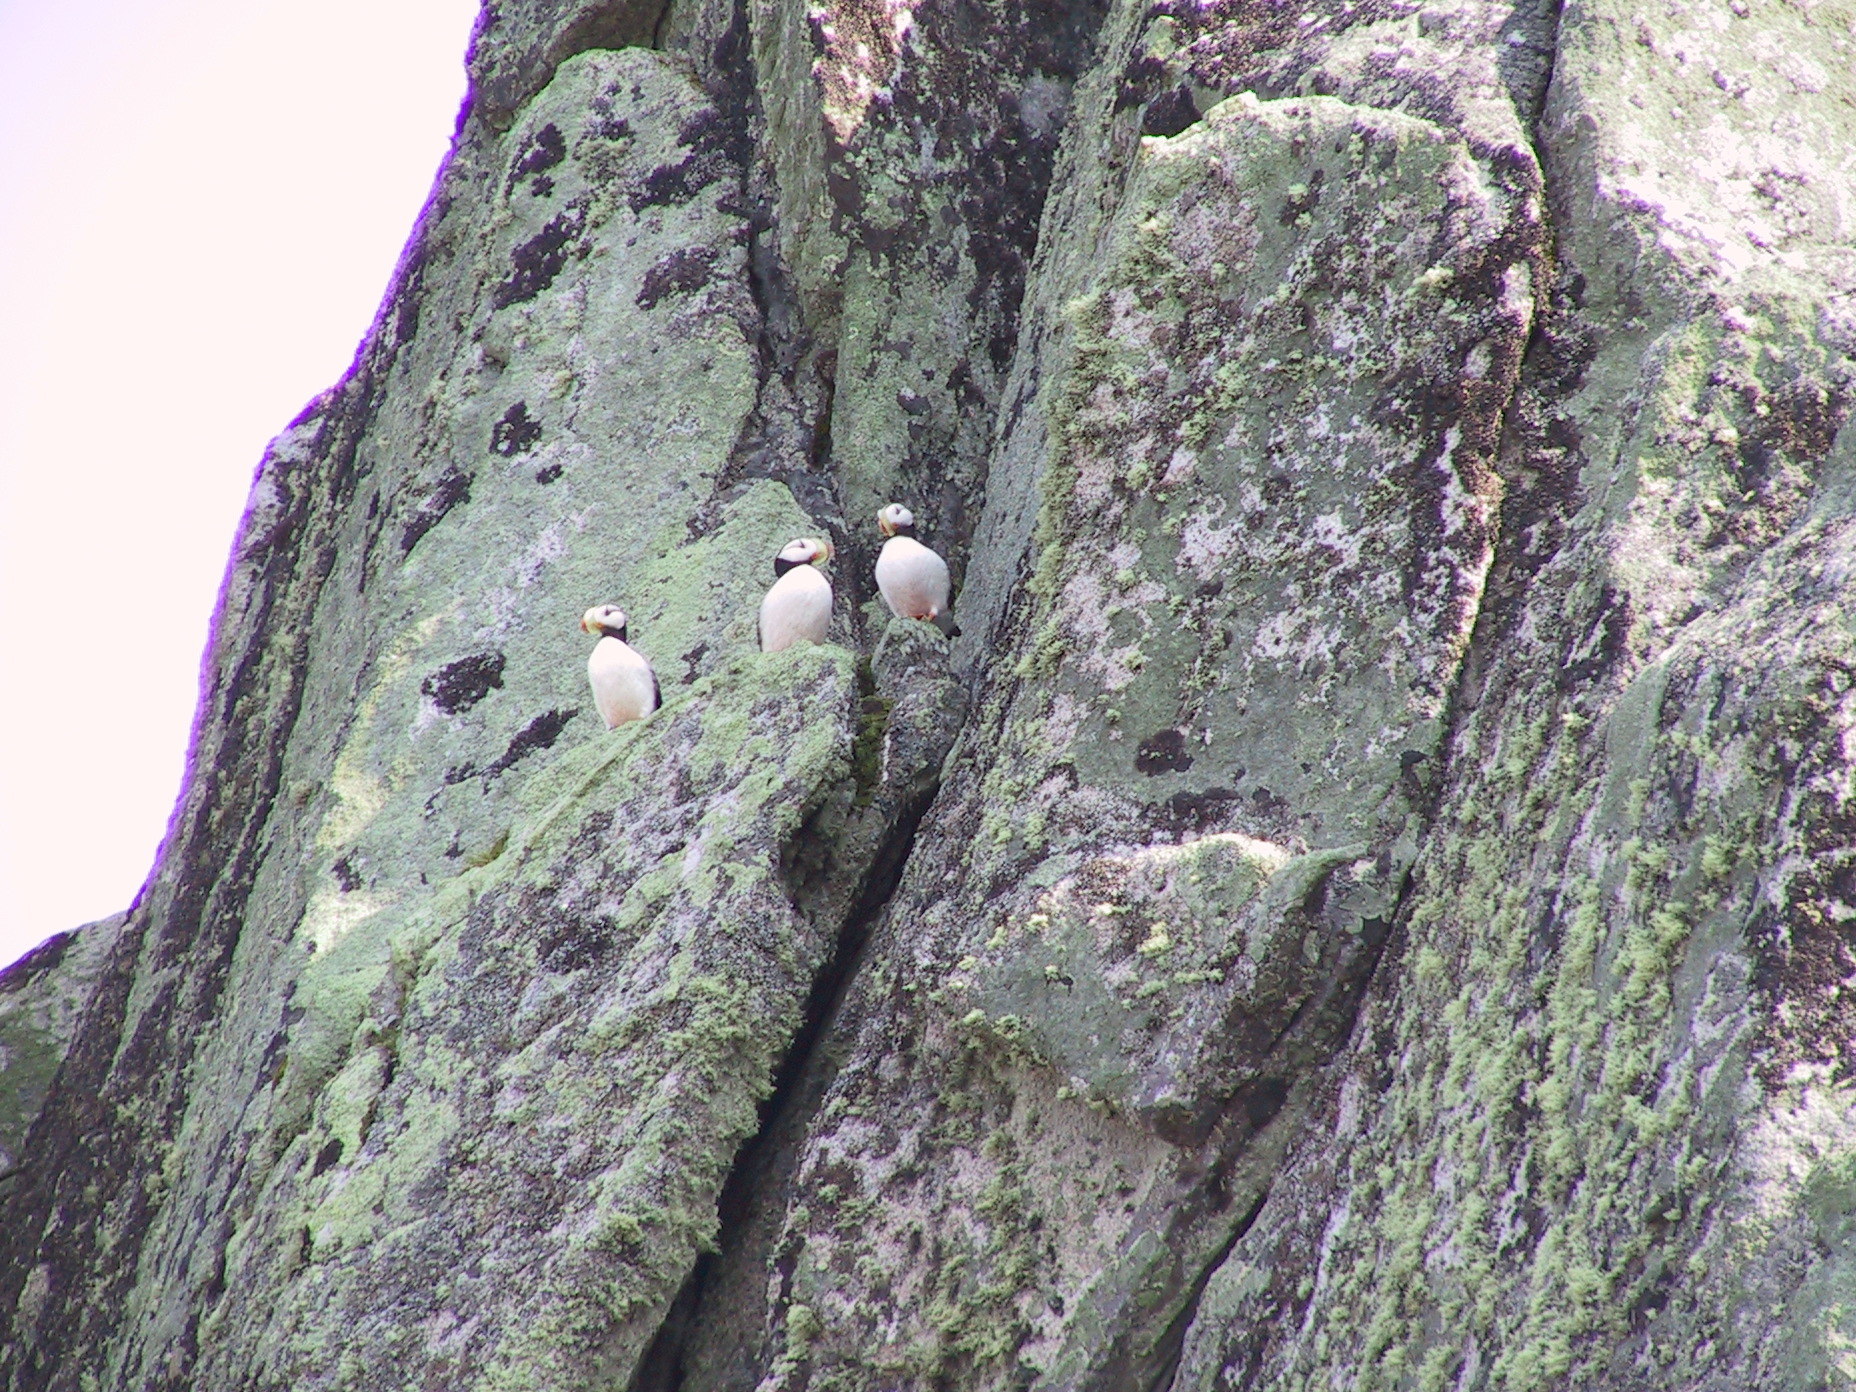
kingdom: Animalia
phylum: Chordata
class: Aves
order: Charadriiformes
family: Alcidae
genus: Fratercula
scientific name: Fratercula corniculata
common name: Horned puffin
